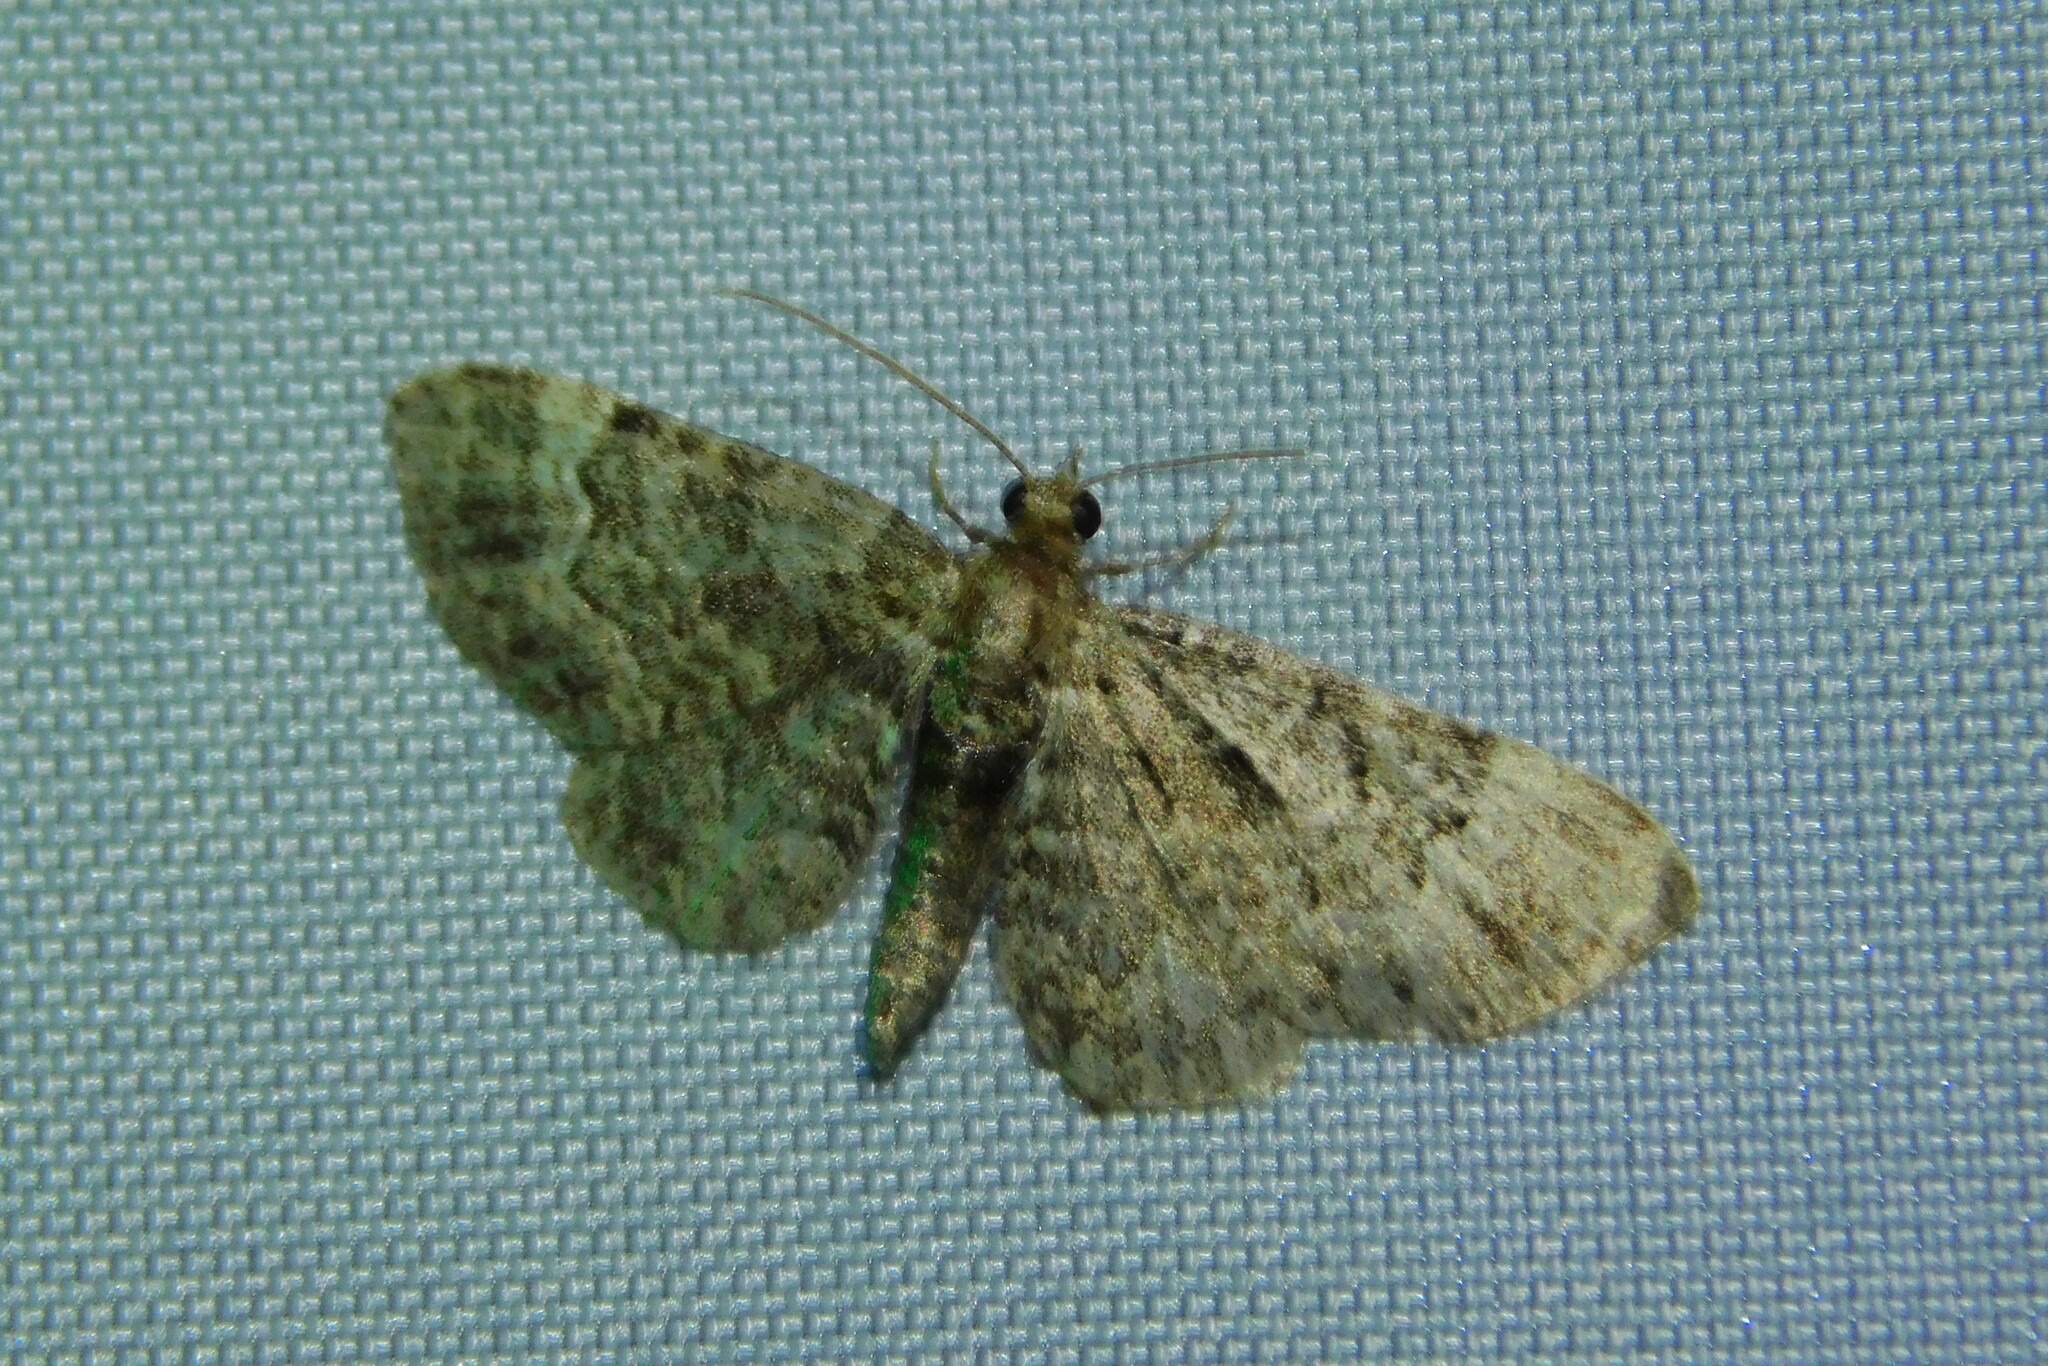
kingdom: Animalia
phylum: Arthropoda
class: Insecta
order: Lepidoptera
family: Geometridae
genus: Pasiphila
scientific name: Pasiphila rectangulata
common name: Green pug
